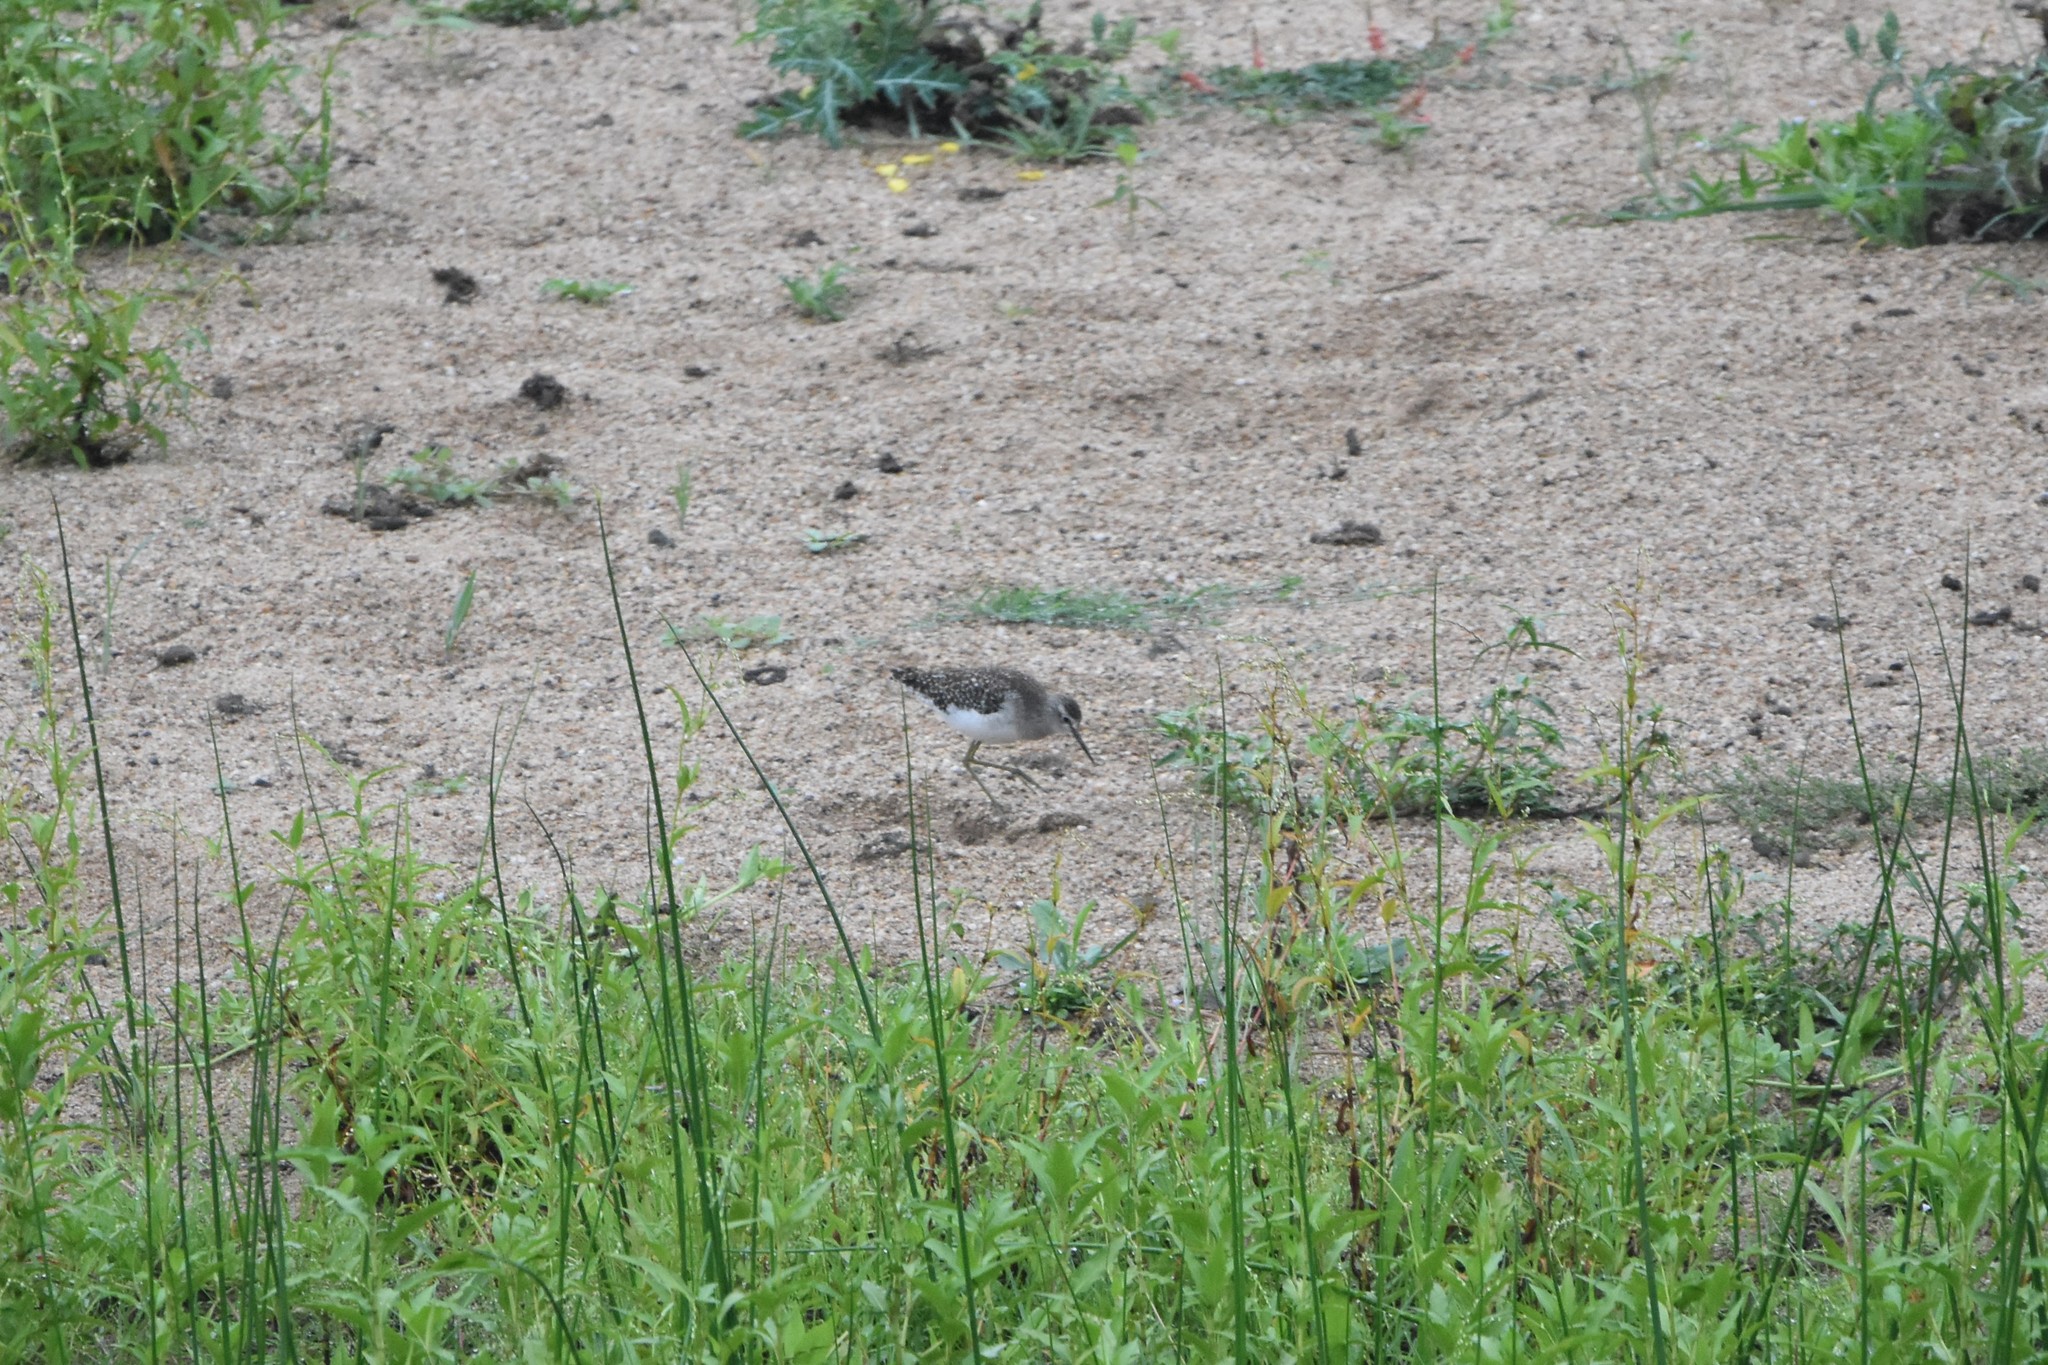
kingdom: Animalia
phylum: Chordata
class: Aves
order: Charadriiformes
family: Scolopacidae
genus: Tringa
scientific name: Tringa glareola
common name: Wood sandpiper
